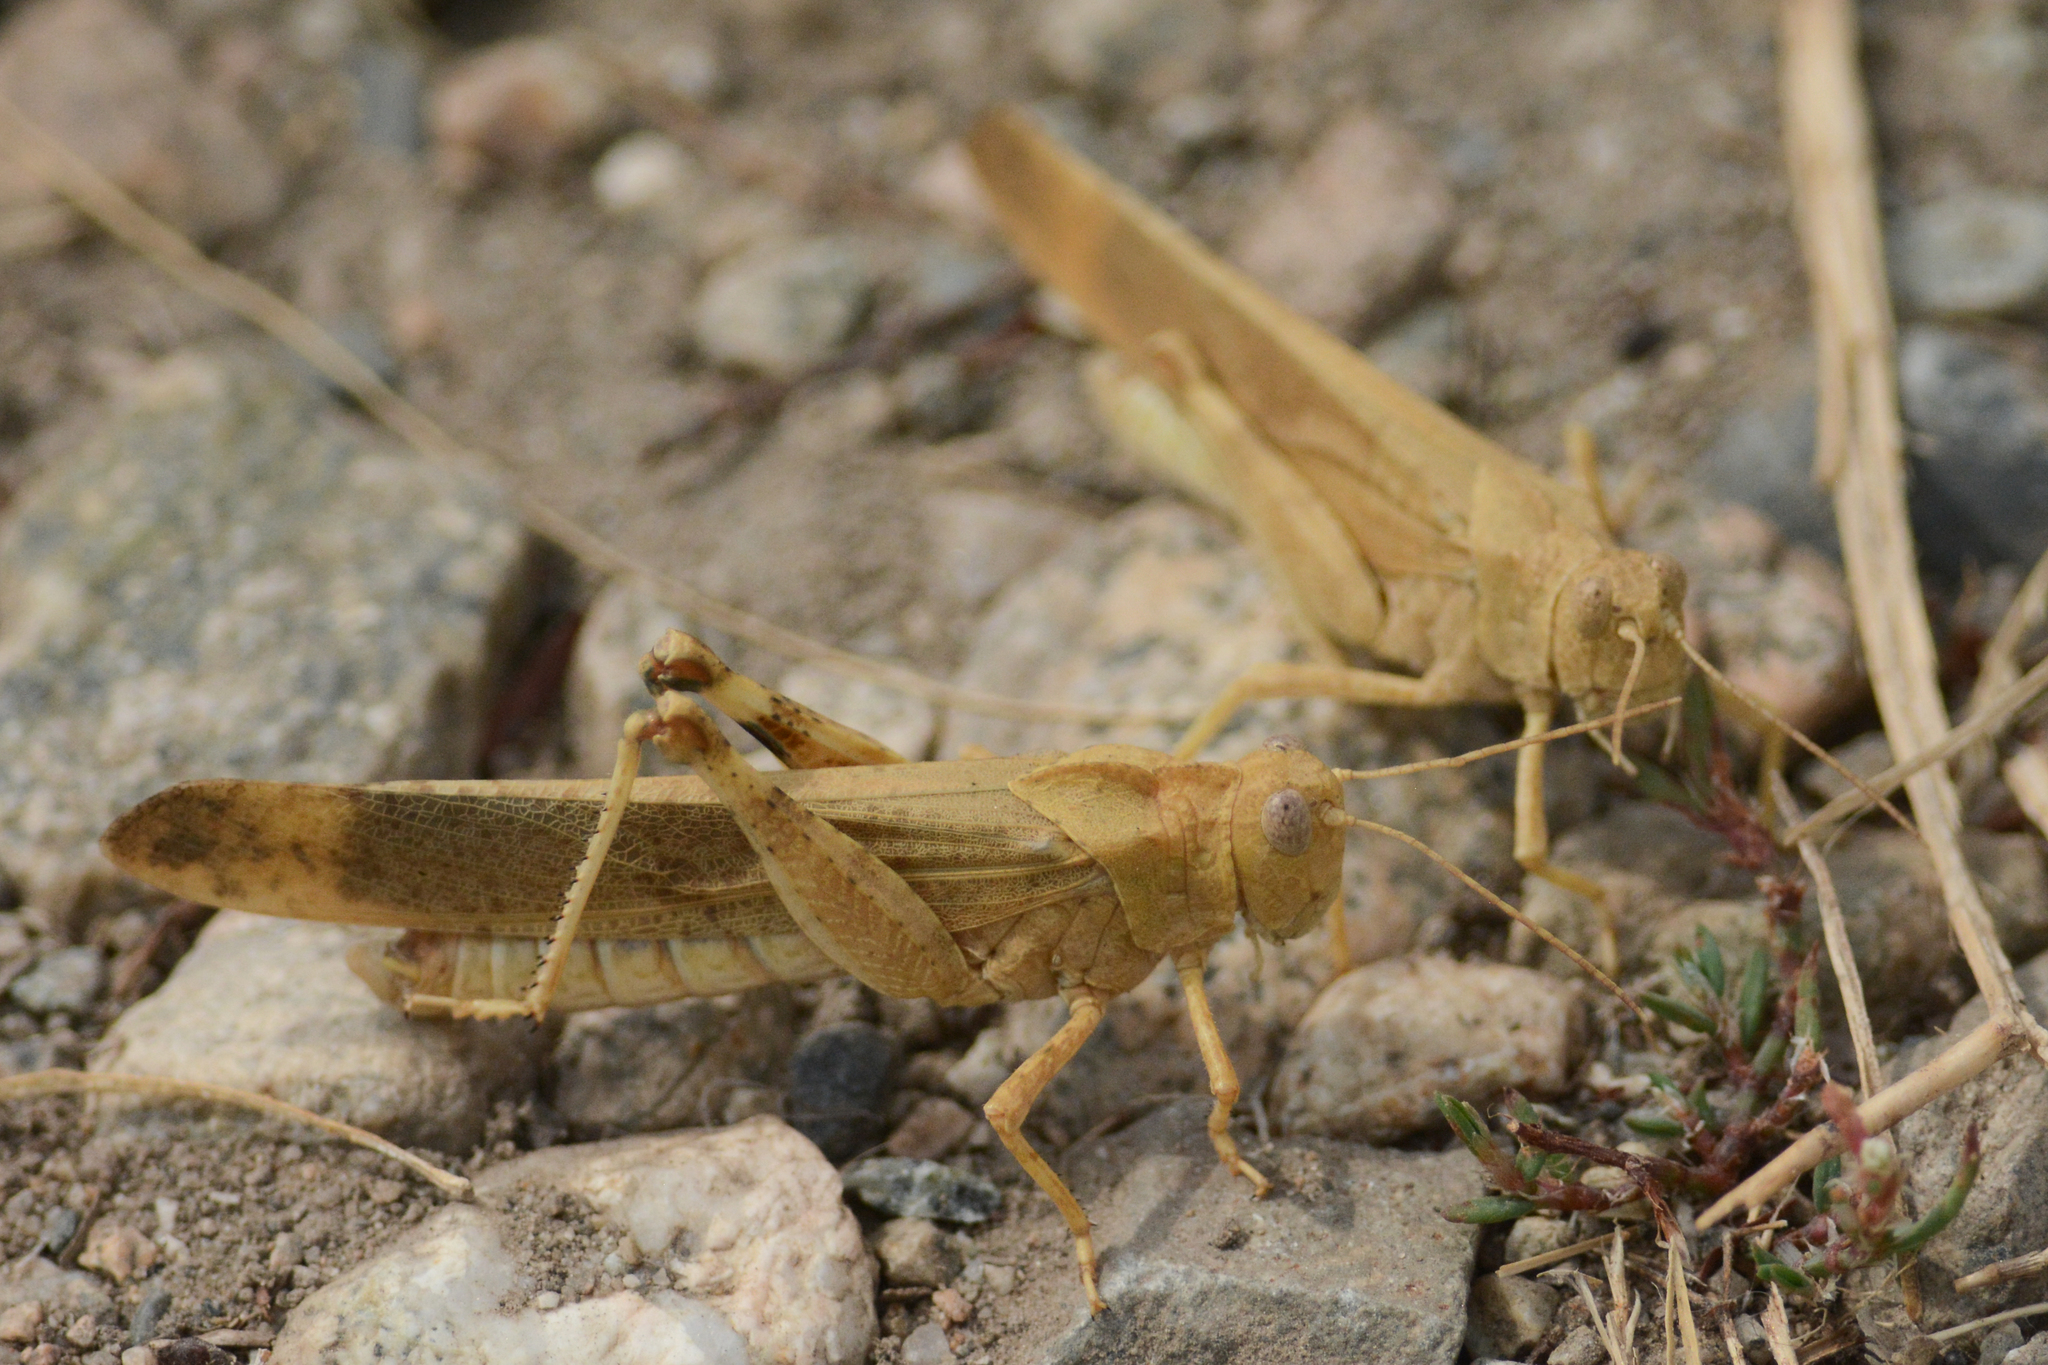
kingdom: Animalia
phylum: Arthropoda
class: Insecta
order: Orthoptera
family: Acrididae
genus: Dissosteira
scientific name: Dissosteira carolina
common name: Carolina grasshopper
